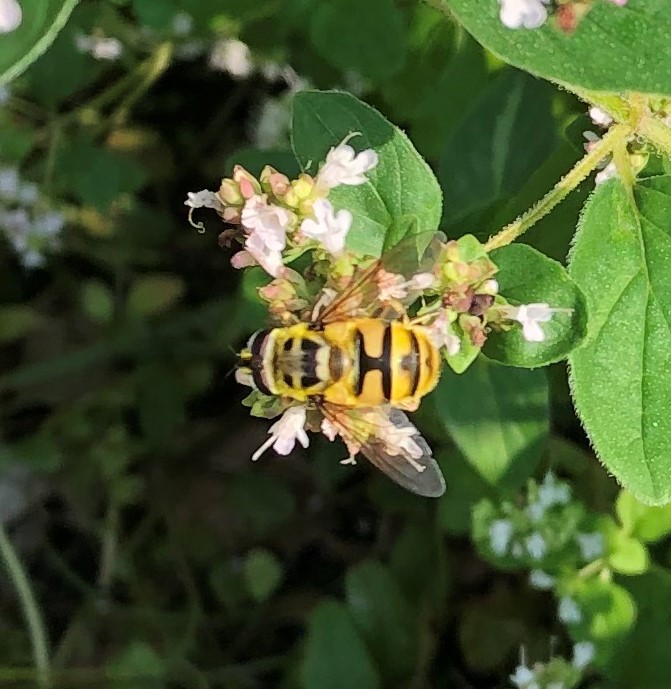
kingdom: Animalia
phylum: Arthropoda
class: Insecta
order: Diptera
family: Syrphidae
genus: Myathropa
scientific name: Myathropa florea
